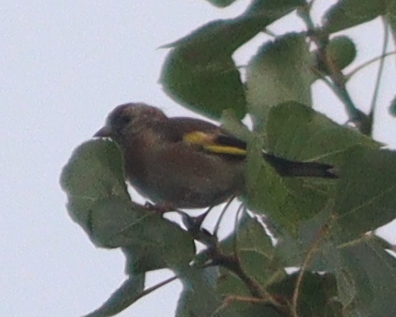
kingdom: Animalia
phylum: Chordata
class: Aves
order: Passeriformes
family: Fringillidae
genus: Carduelis
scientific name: Carduelis carduelis
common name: European goldfinch
